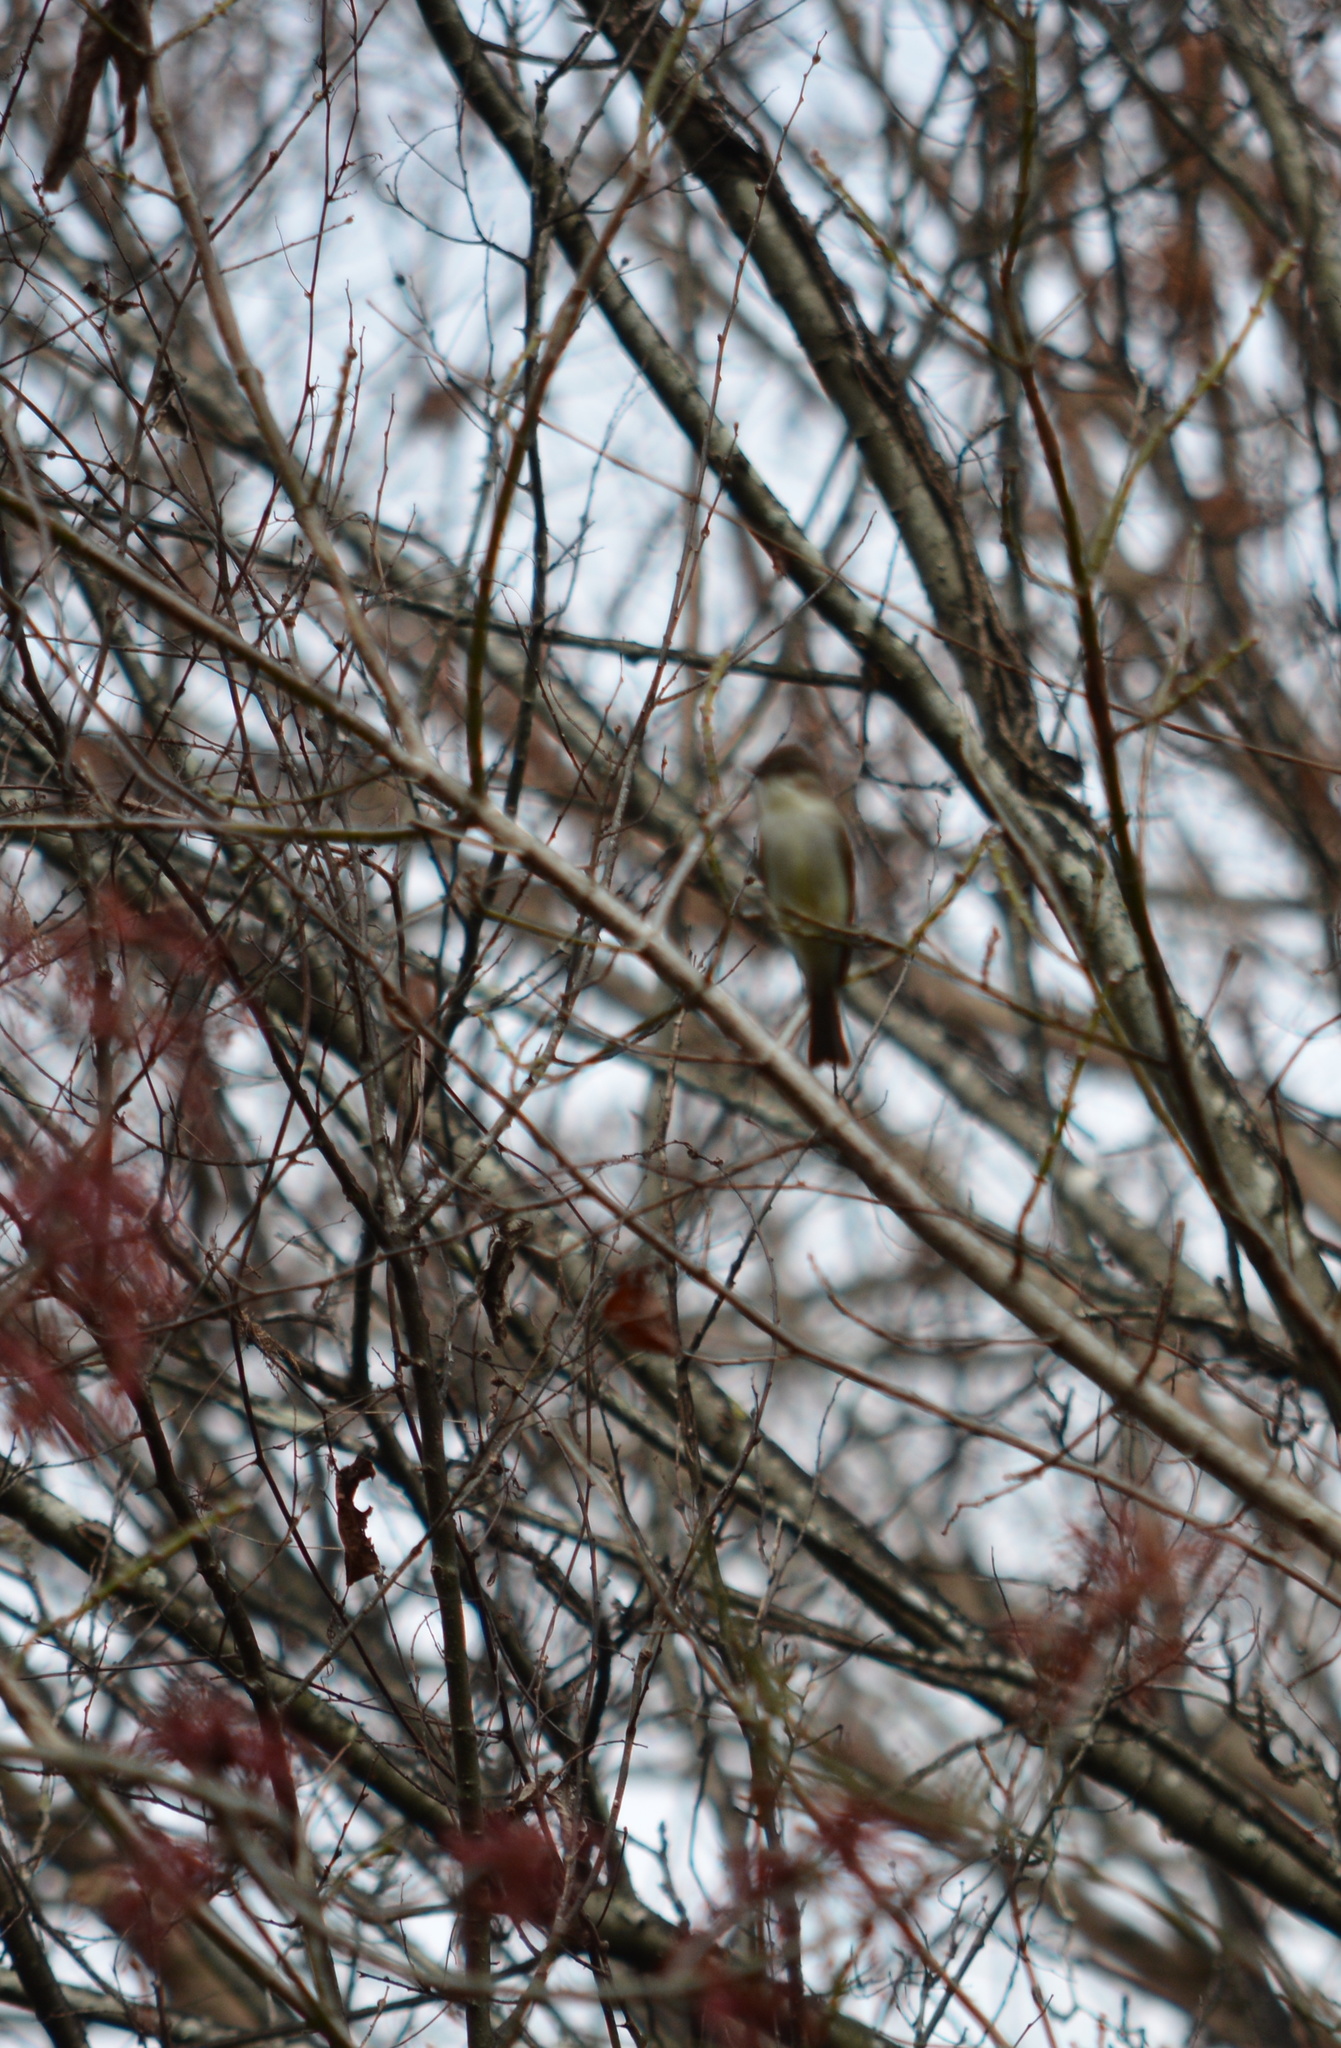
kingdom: Animalia
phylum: Chordata
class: Aves
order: Passeriformes
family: Tyrannidae
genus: Sayornis
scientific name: Sayornis phoebe
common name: Eastern phoebe
